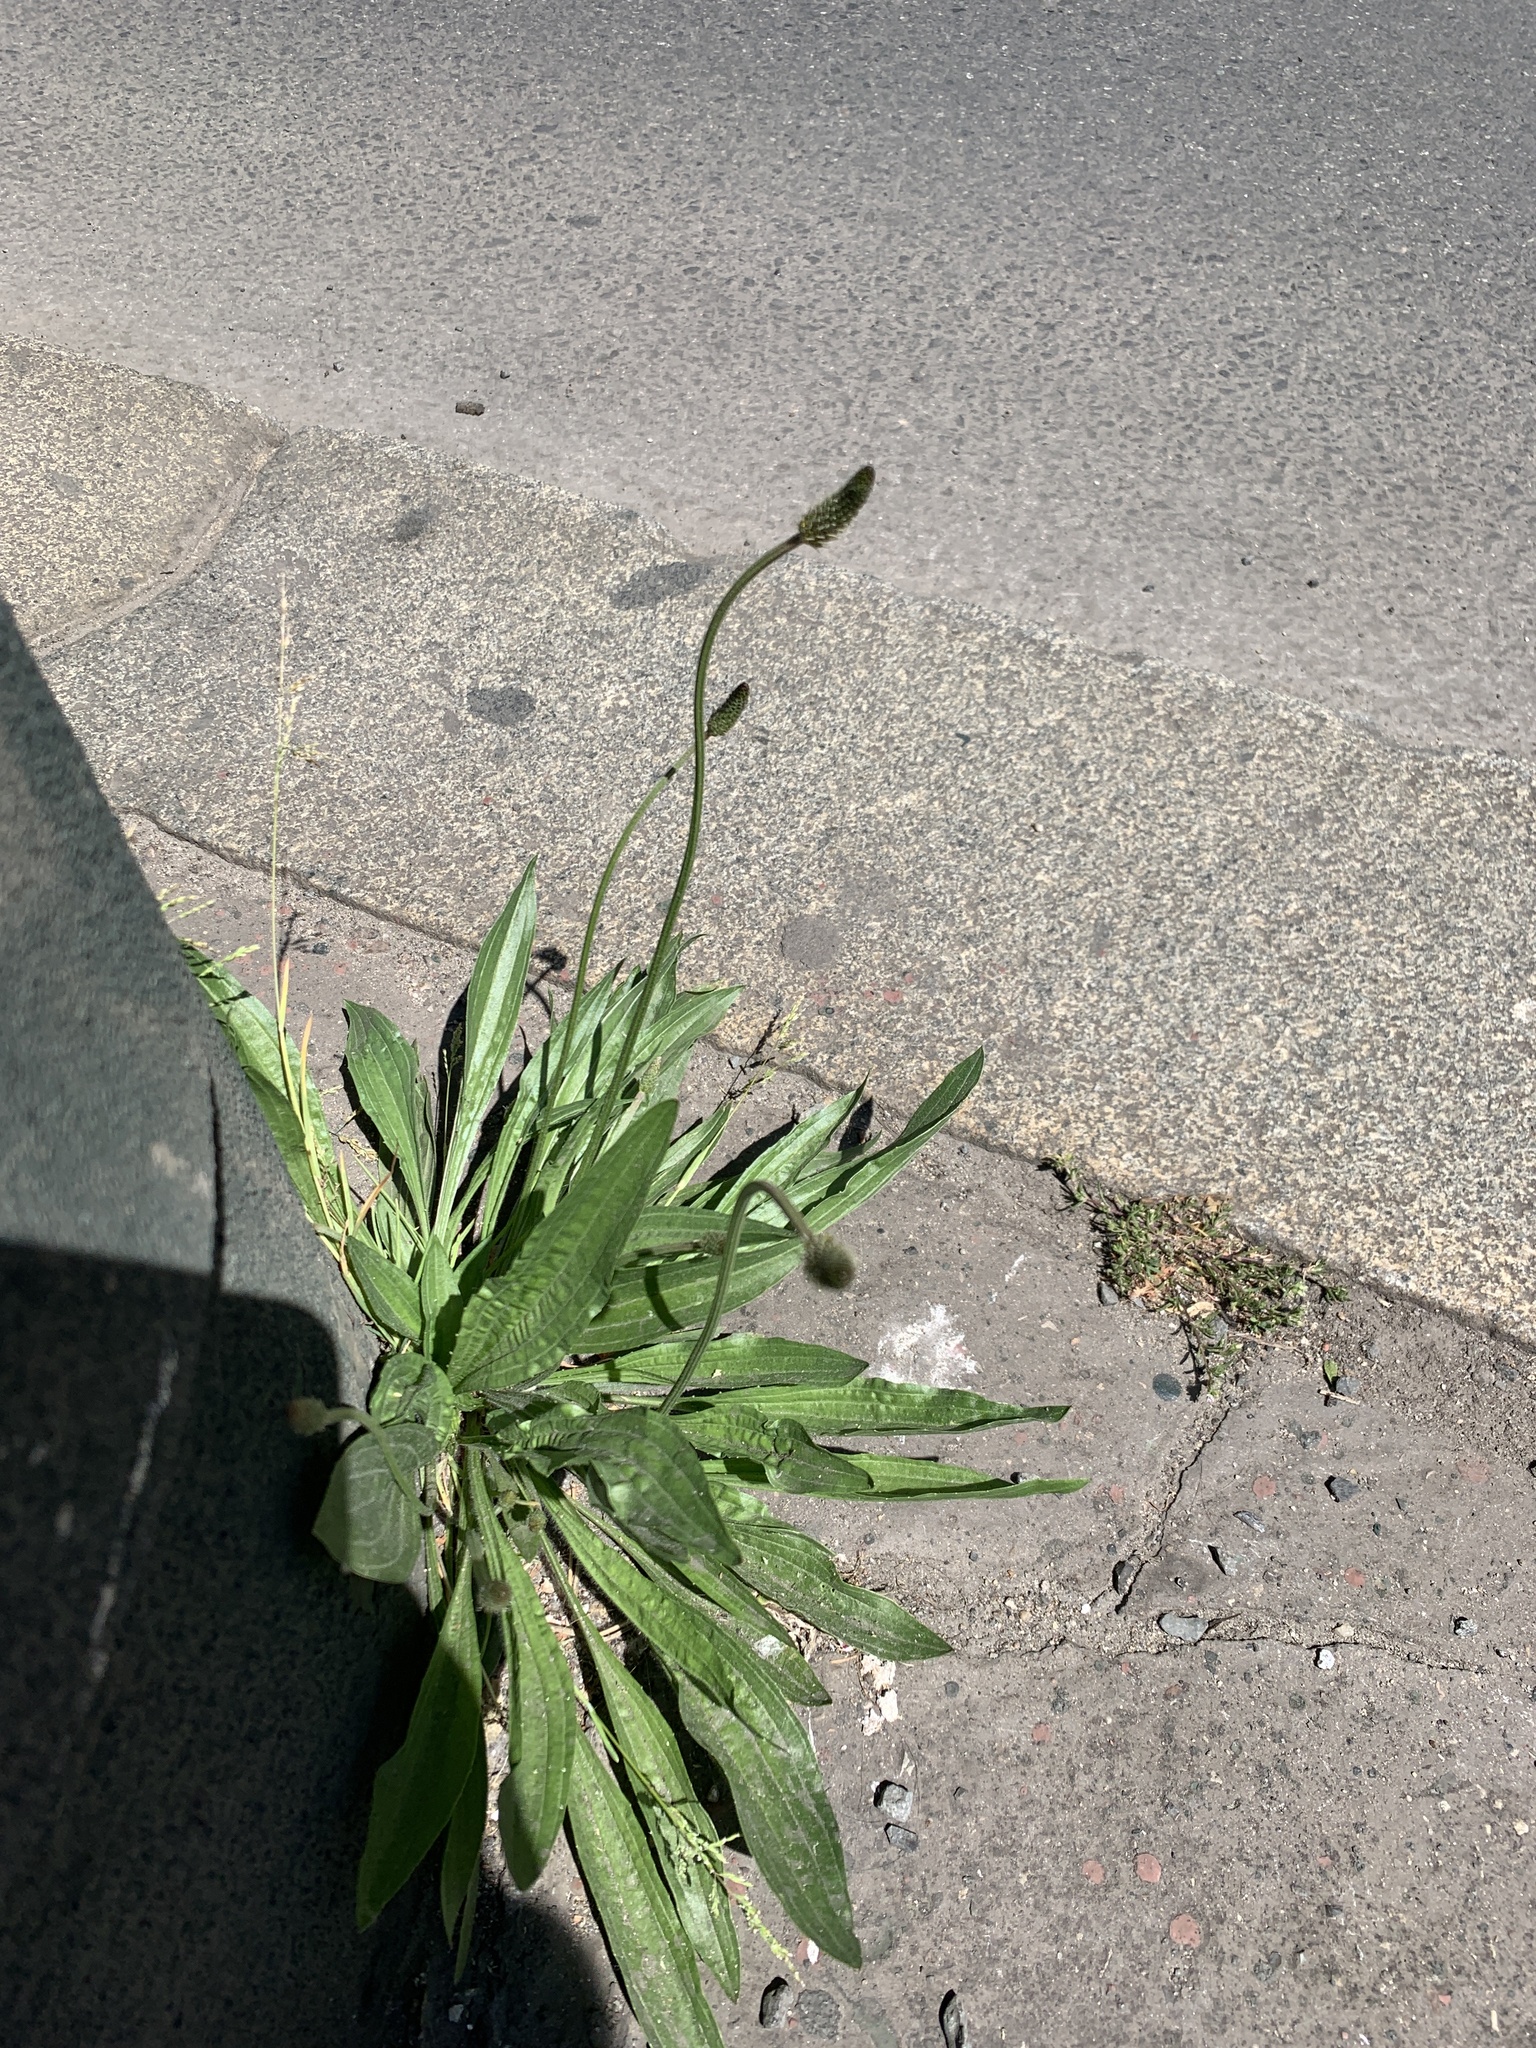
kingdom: Plantae
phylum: Tracheophyta
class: Magnoliopsida
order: Lamiales
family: Plantaginaceae
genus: Plantago
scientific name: Plantago lanceolata
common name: Ribwort plantain
